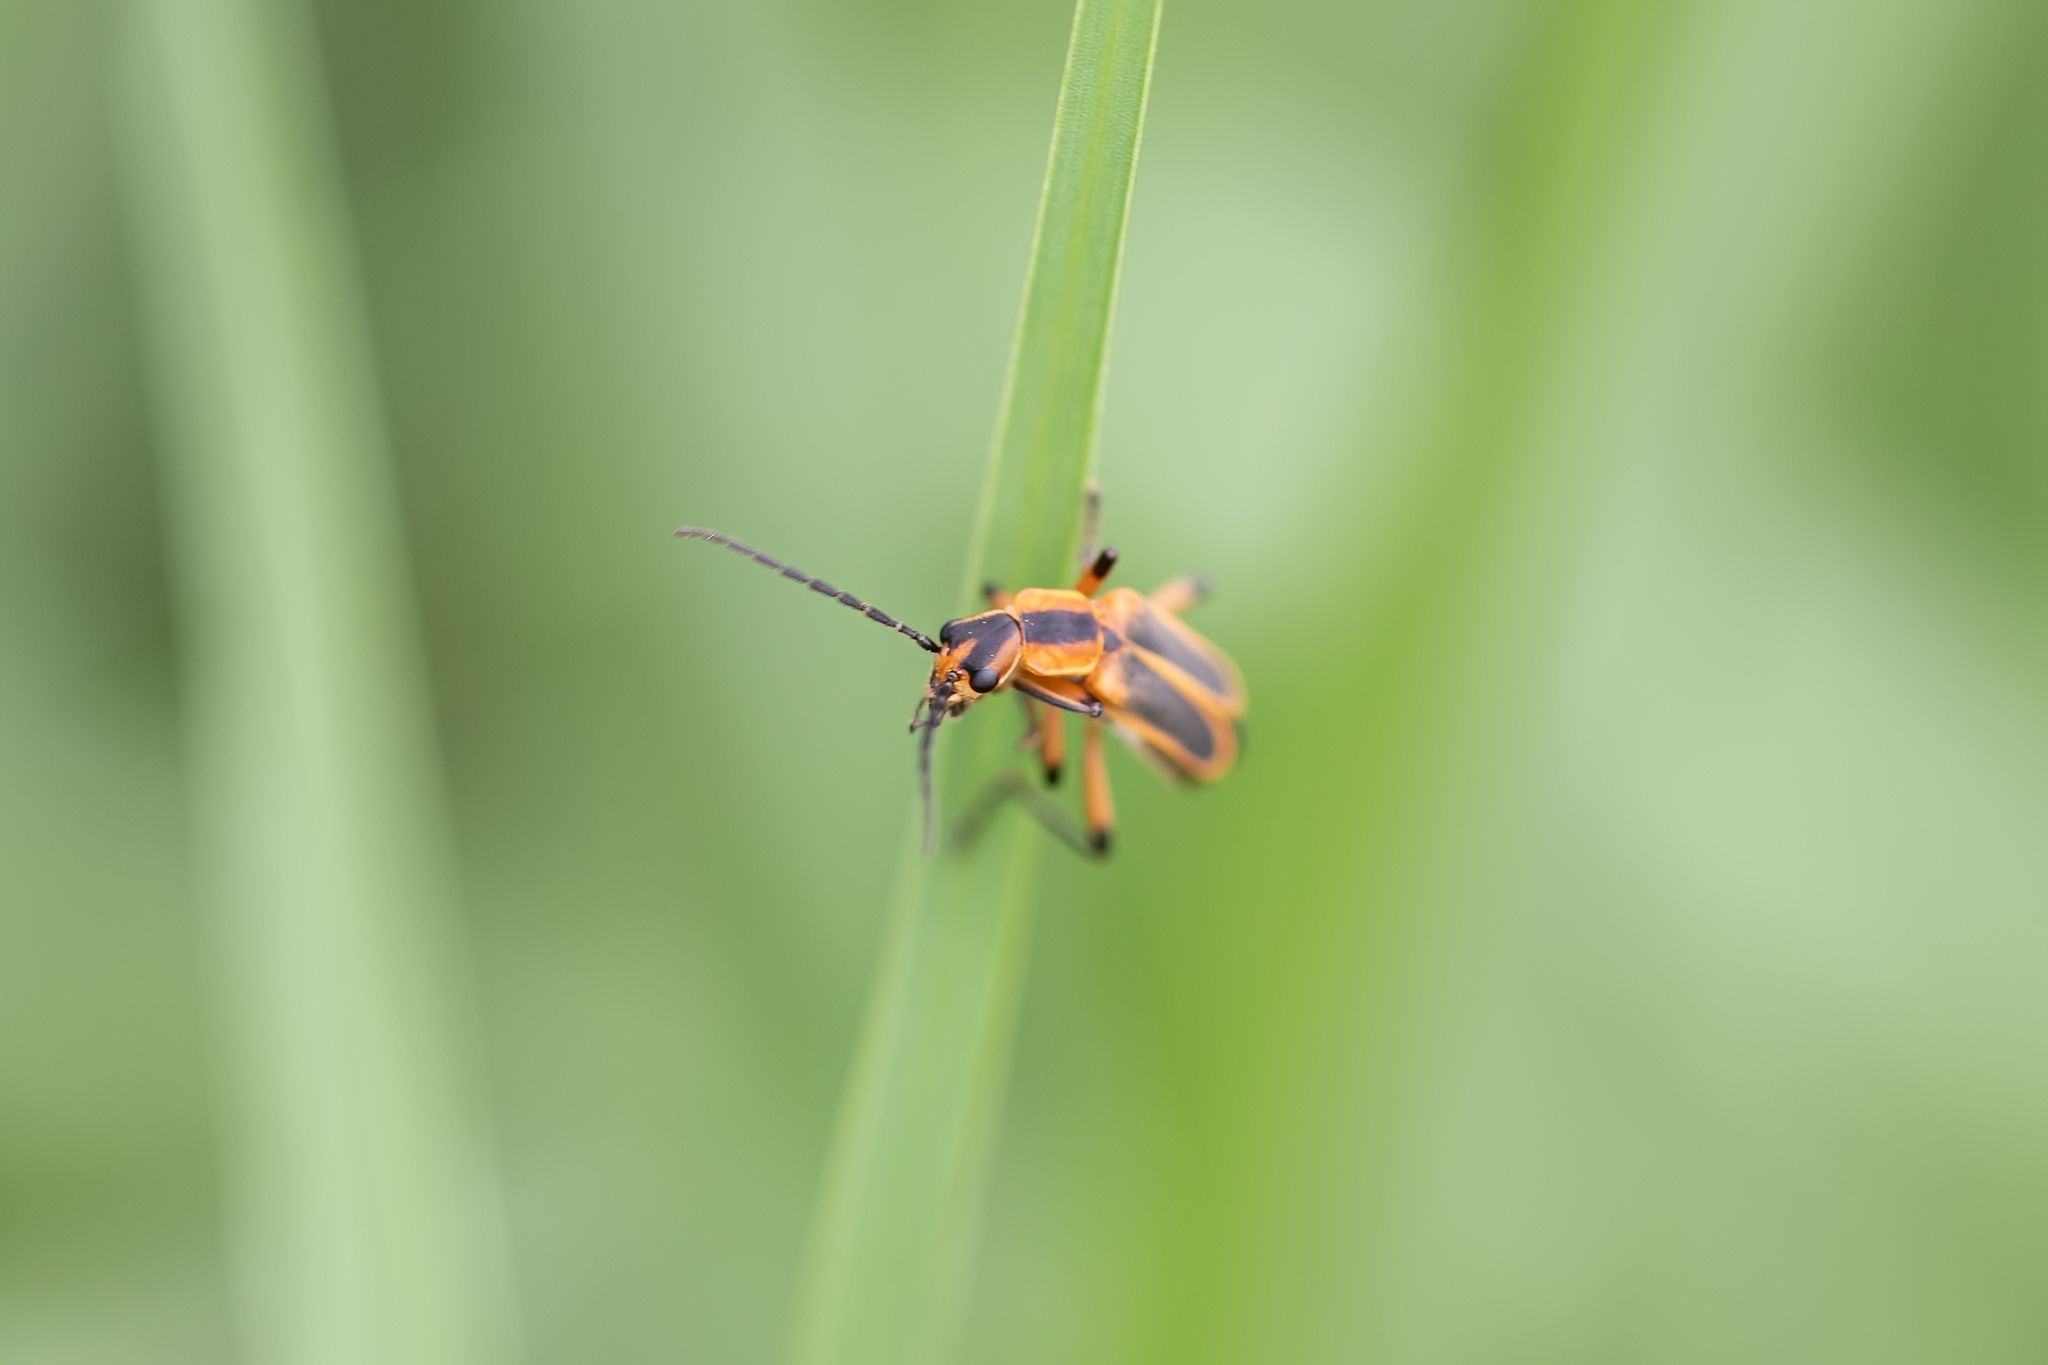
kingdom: Animalia
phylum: Arthropoda
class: Insecta
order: Coleoptera
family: Cantharidae
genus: Chauliognathus
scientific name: Chauliognathus marginatus
